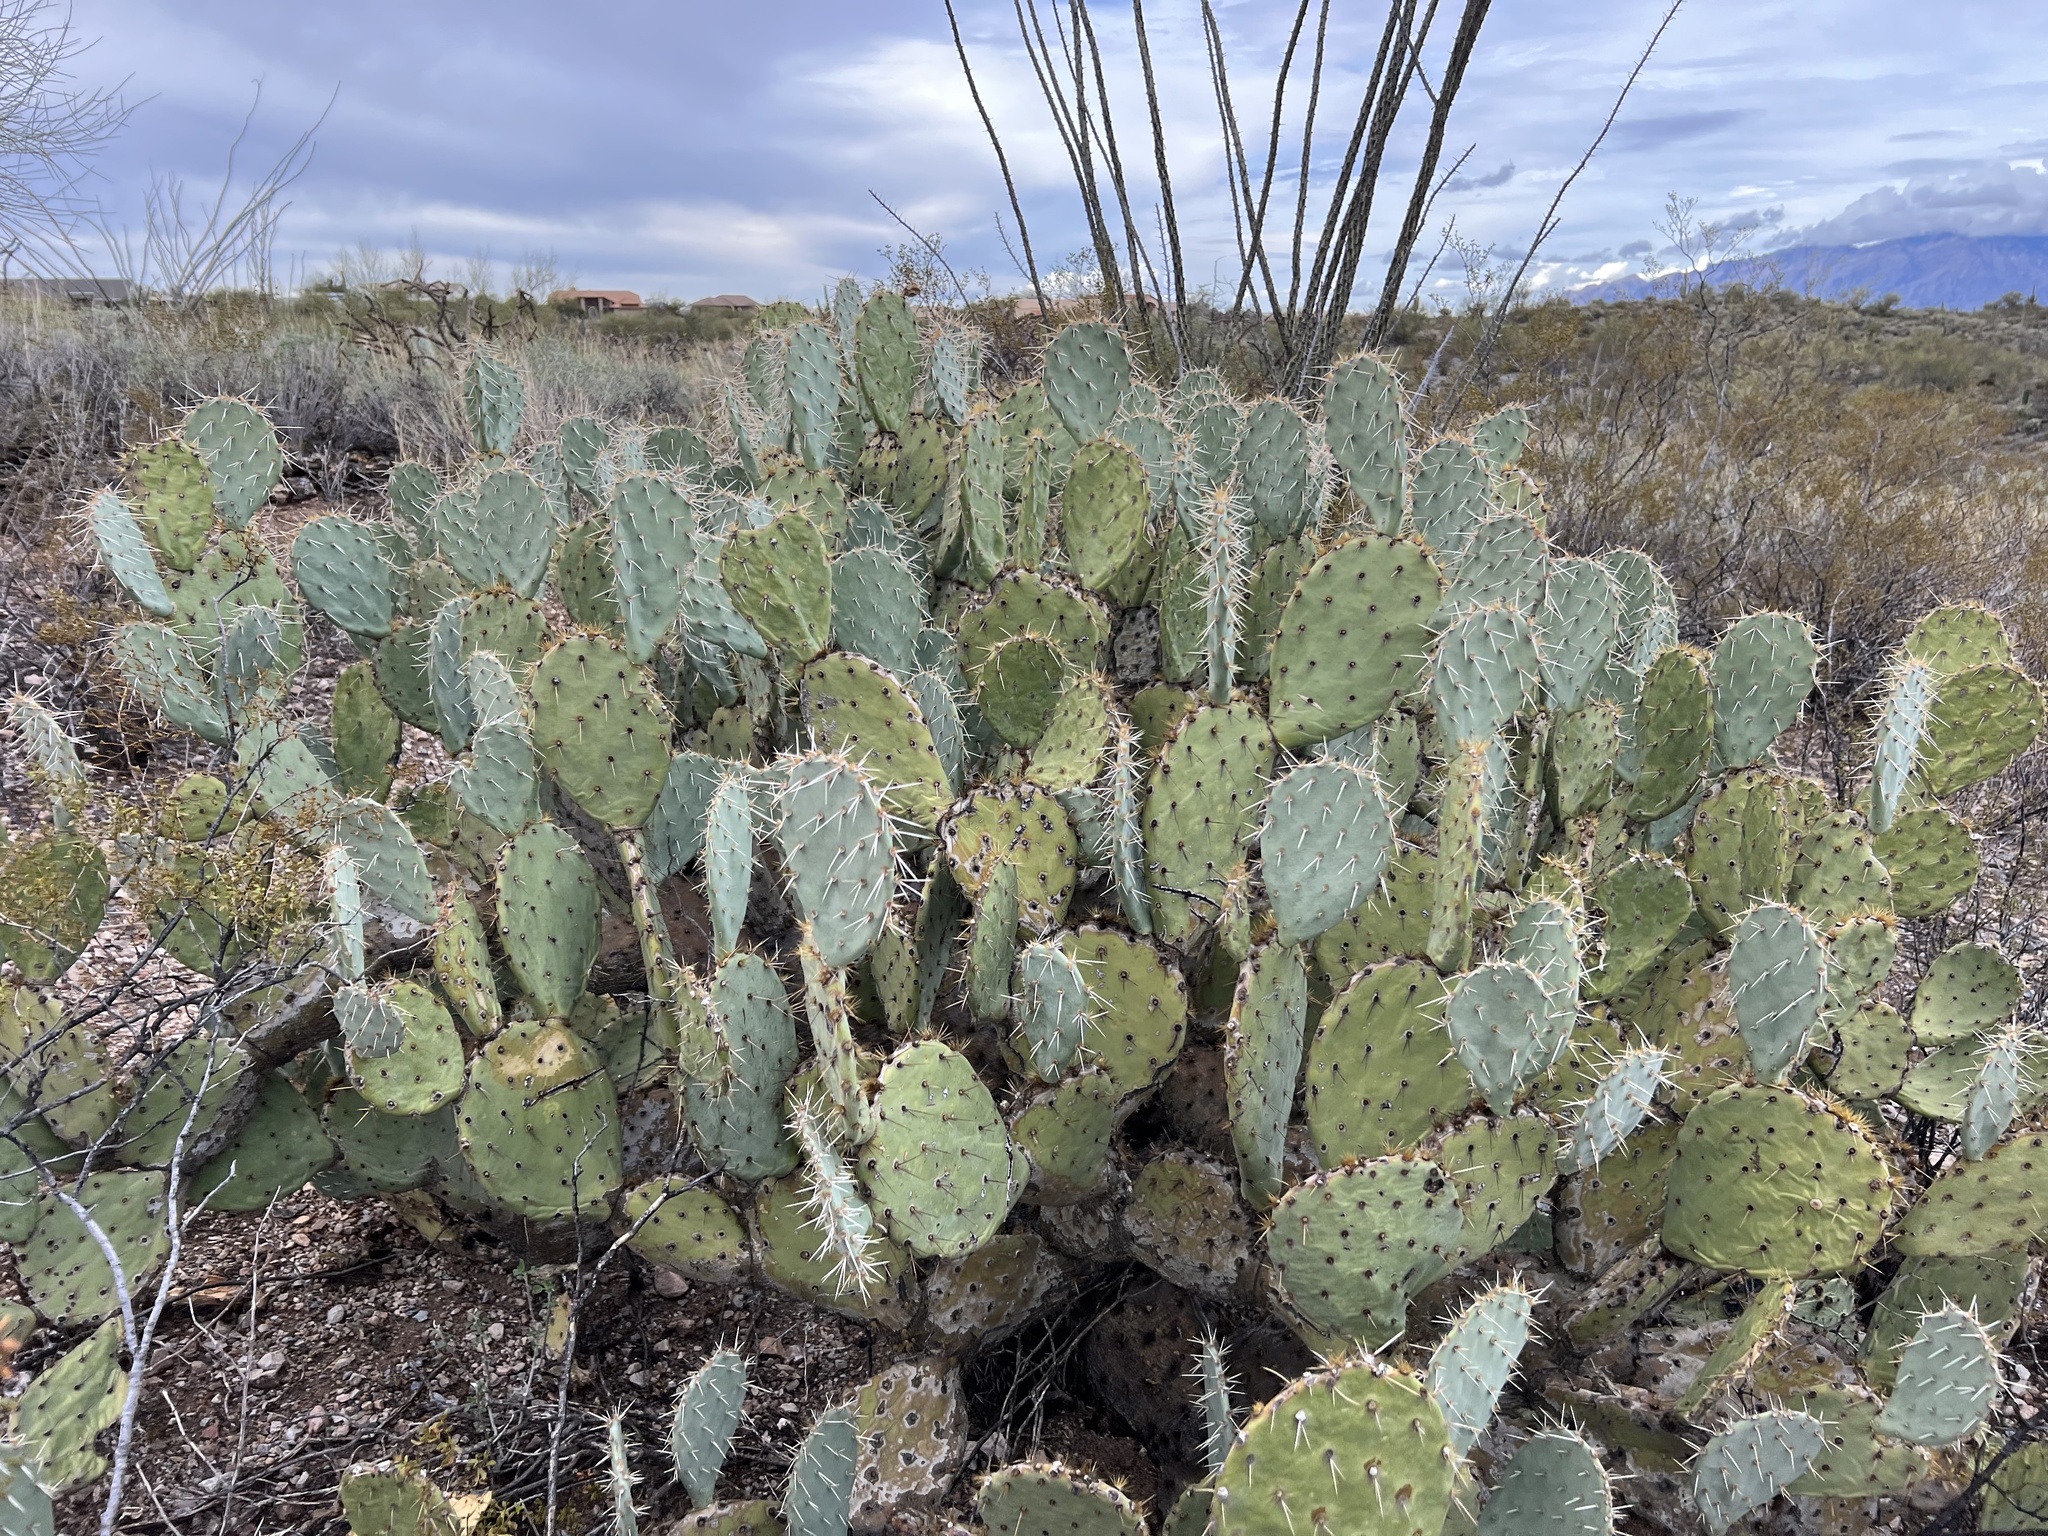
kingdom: Plantae
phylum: Tracheophyta
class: Magnoliopsida
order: Caryophyllales
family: Cactaceae
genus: Opuntia
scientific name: Opuntia engelmannii
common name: Cactus-apple
